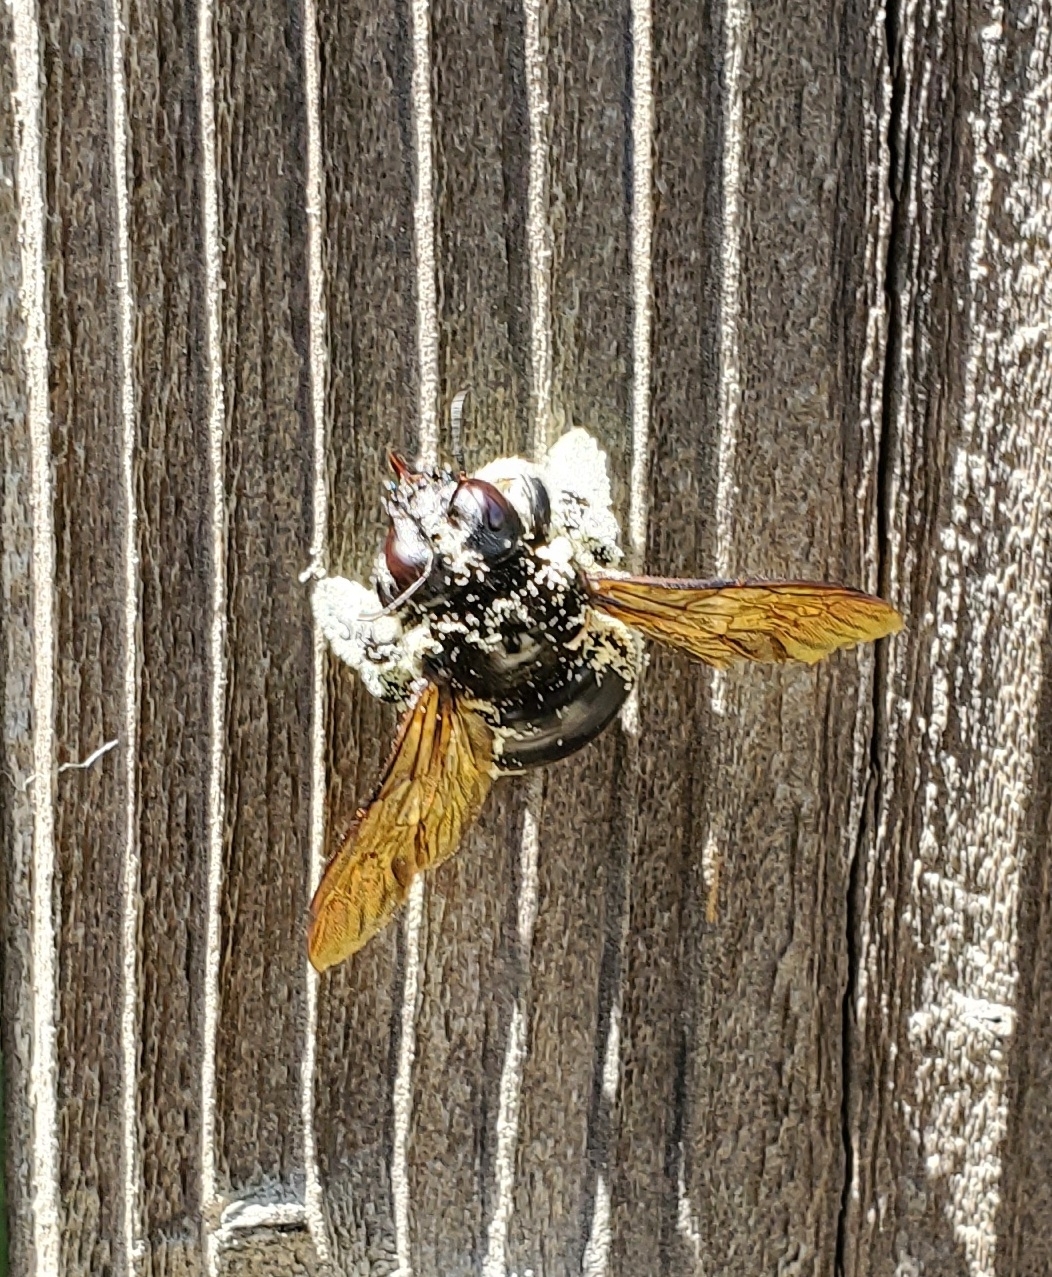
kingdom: Animalia
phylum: Arthropoda
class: Insecta
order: Hymenoptera
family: Apidae
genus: Xylocopa
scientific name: Xylocopa sonorina
